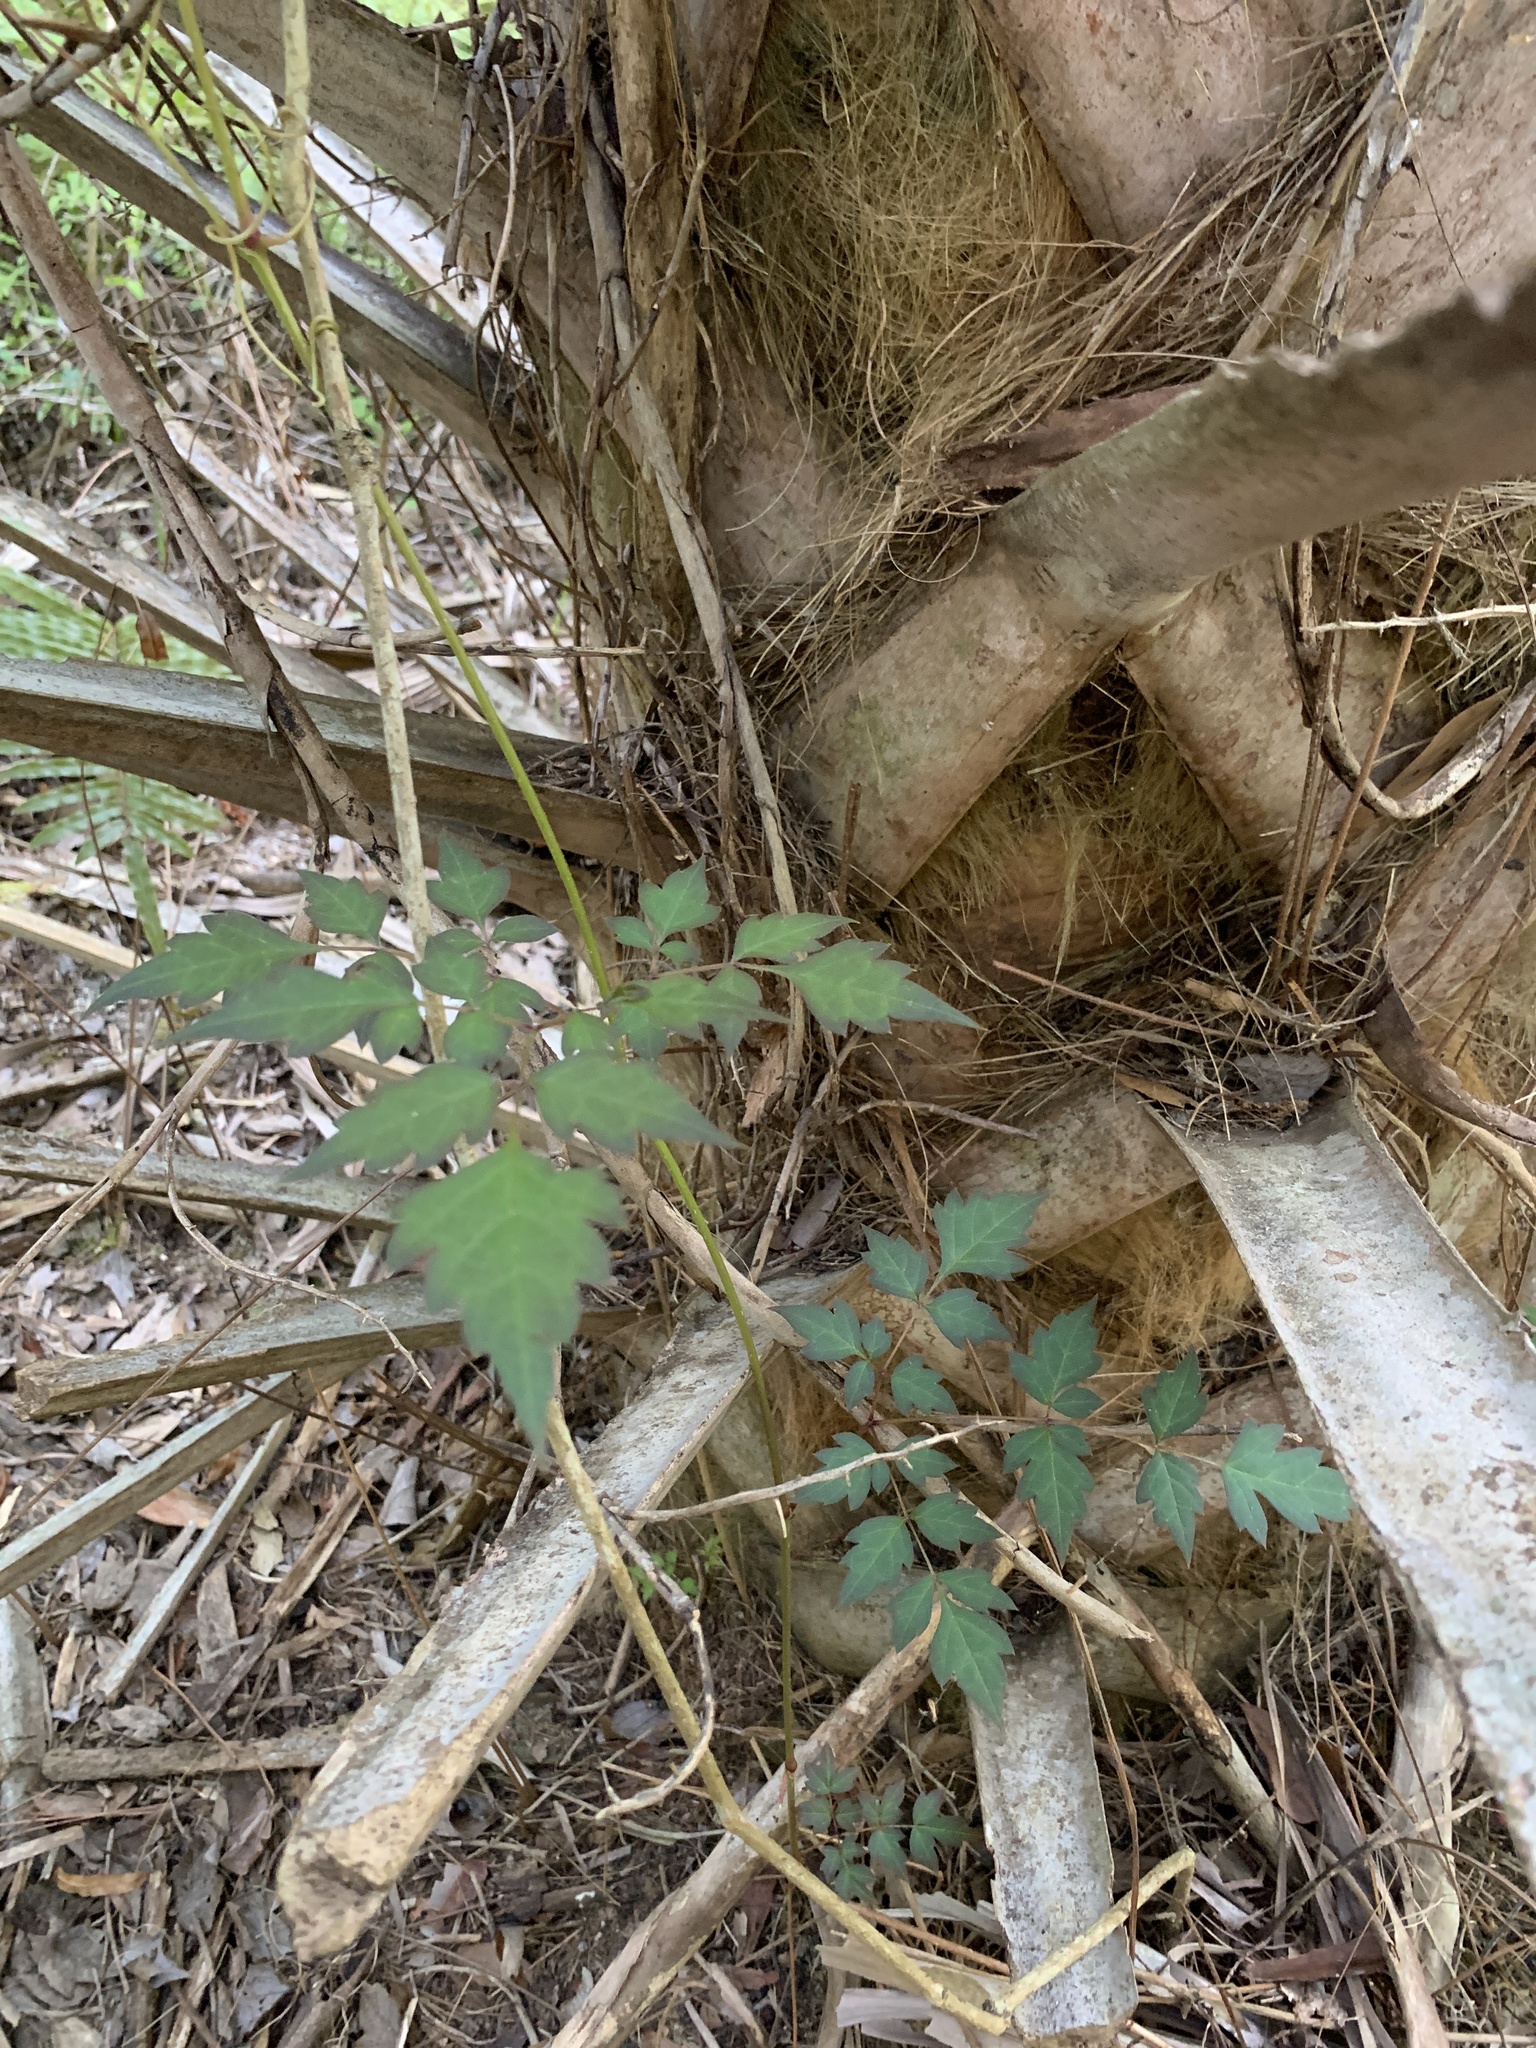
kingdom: Plantae
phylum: Tracheophyta
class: Magnoliopsida
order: Vitales
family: Vitaceae
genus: Nekemias
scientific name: Nekemias arborea
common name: Peppervine
